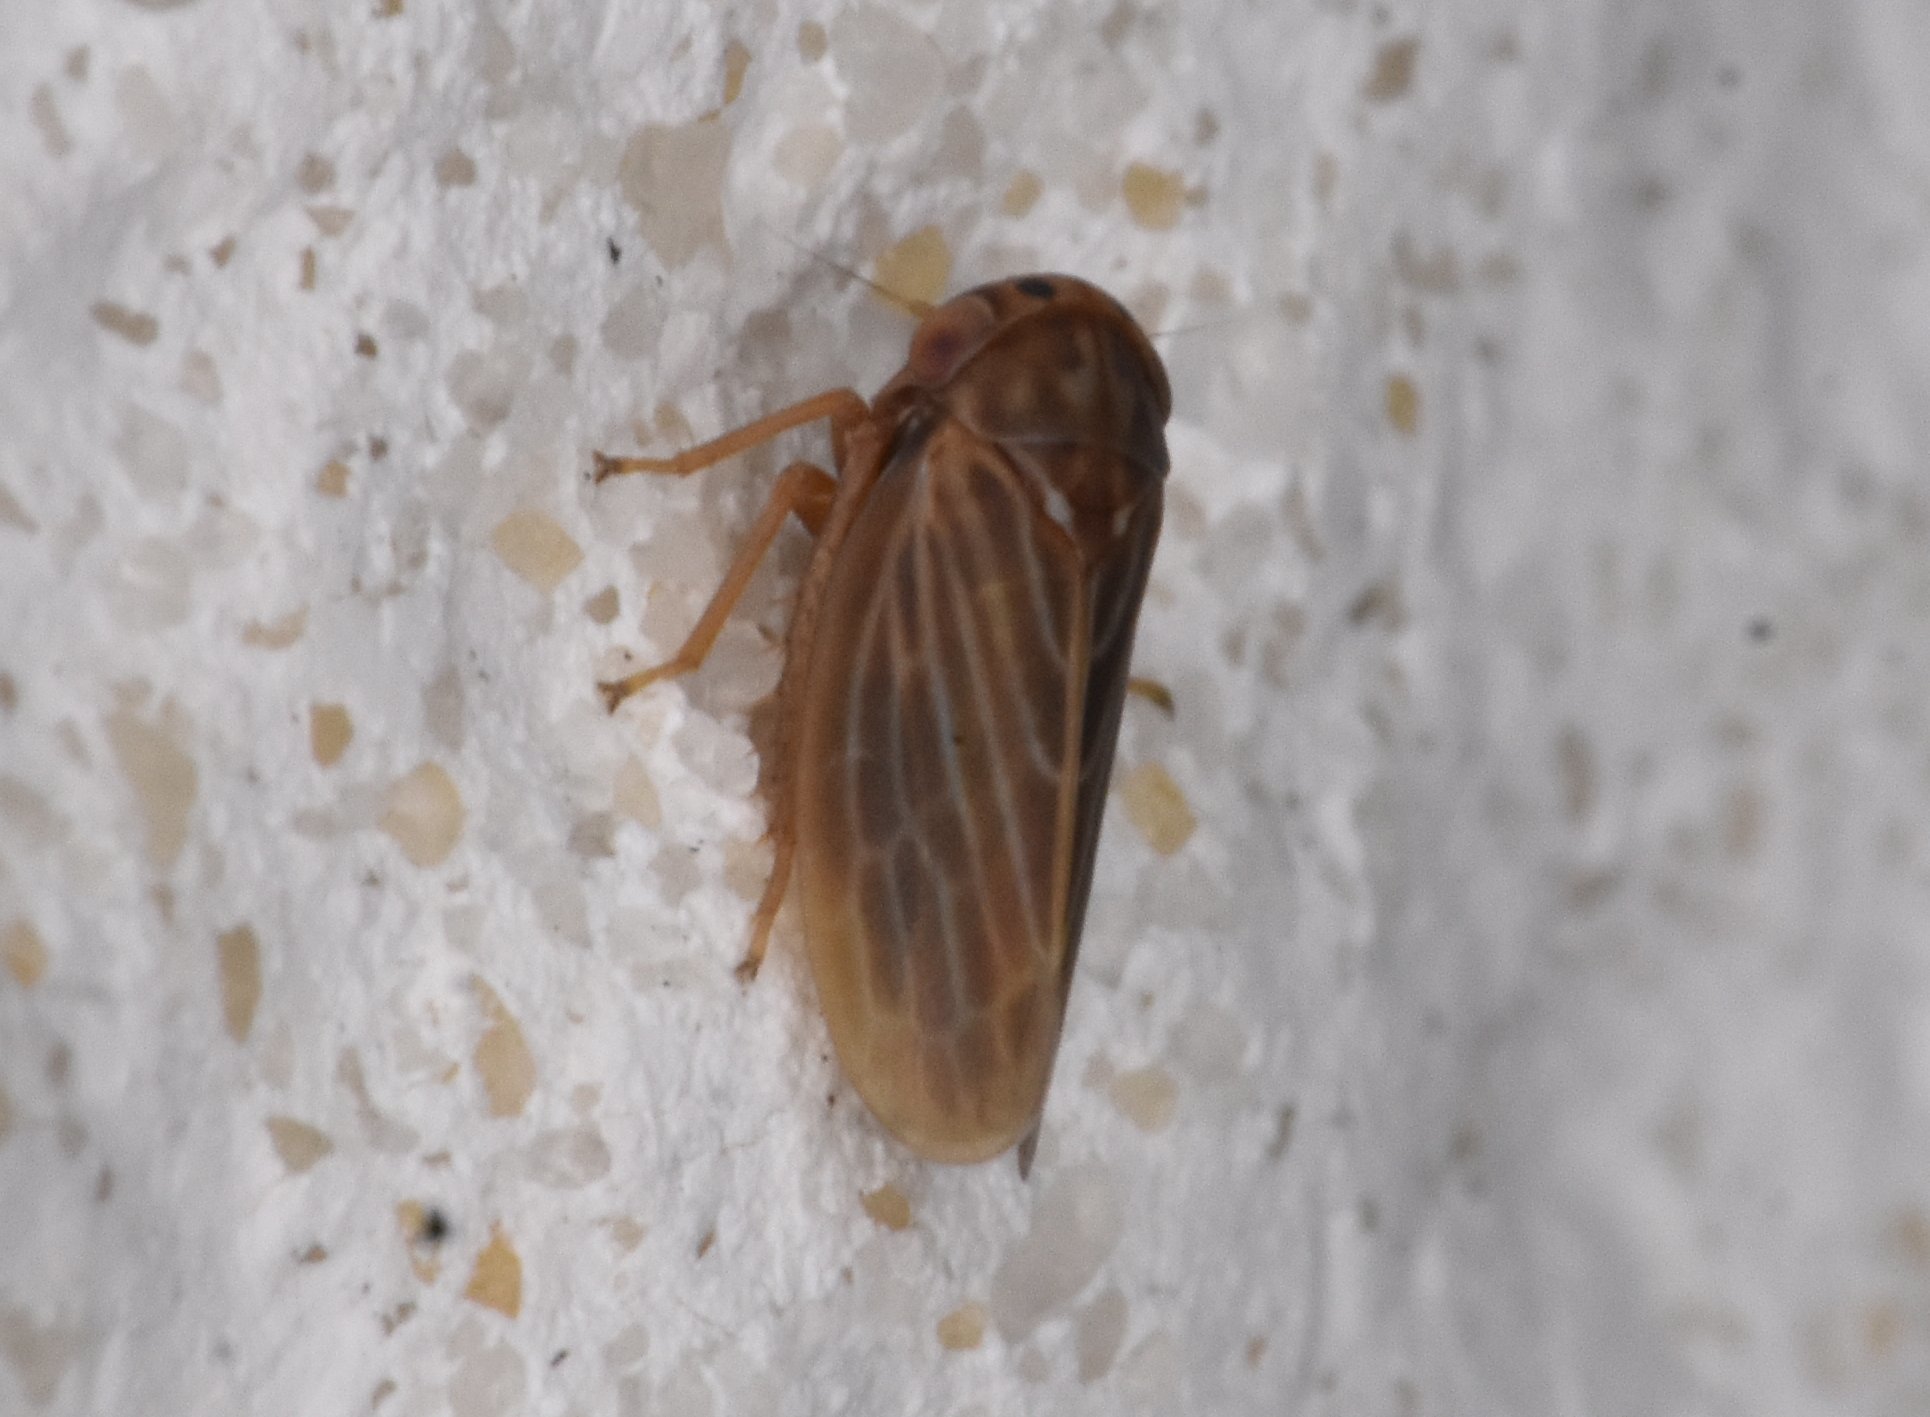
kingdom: Animalia
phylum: Arthropoda
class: Insecta
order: Hemiptera
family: Cicadellidae
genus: Agallia
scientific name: Agallia nielsoni
